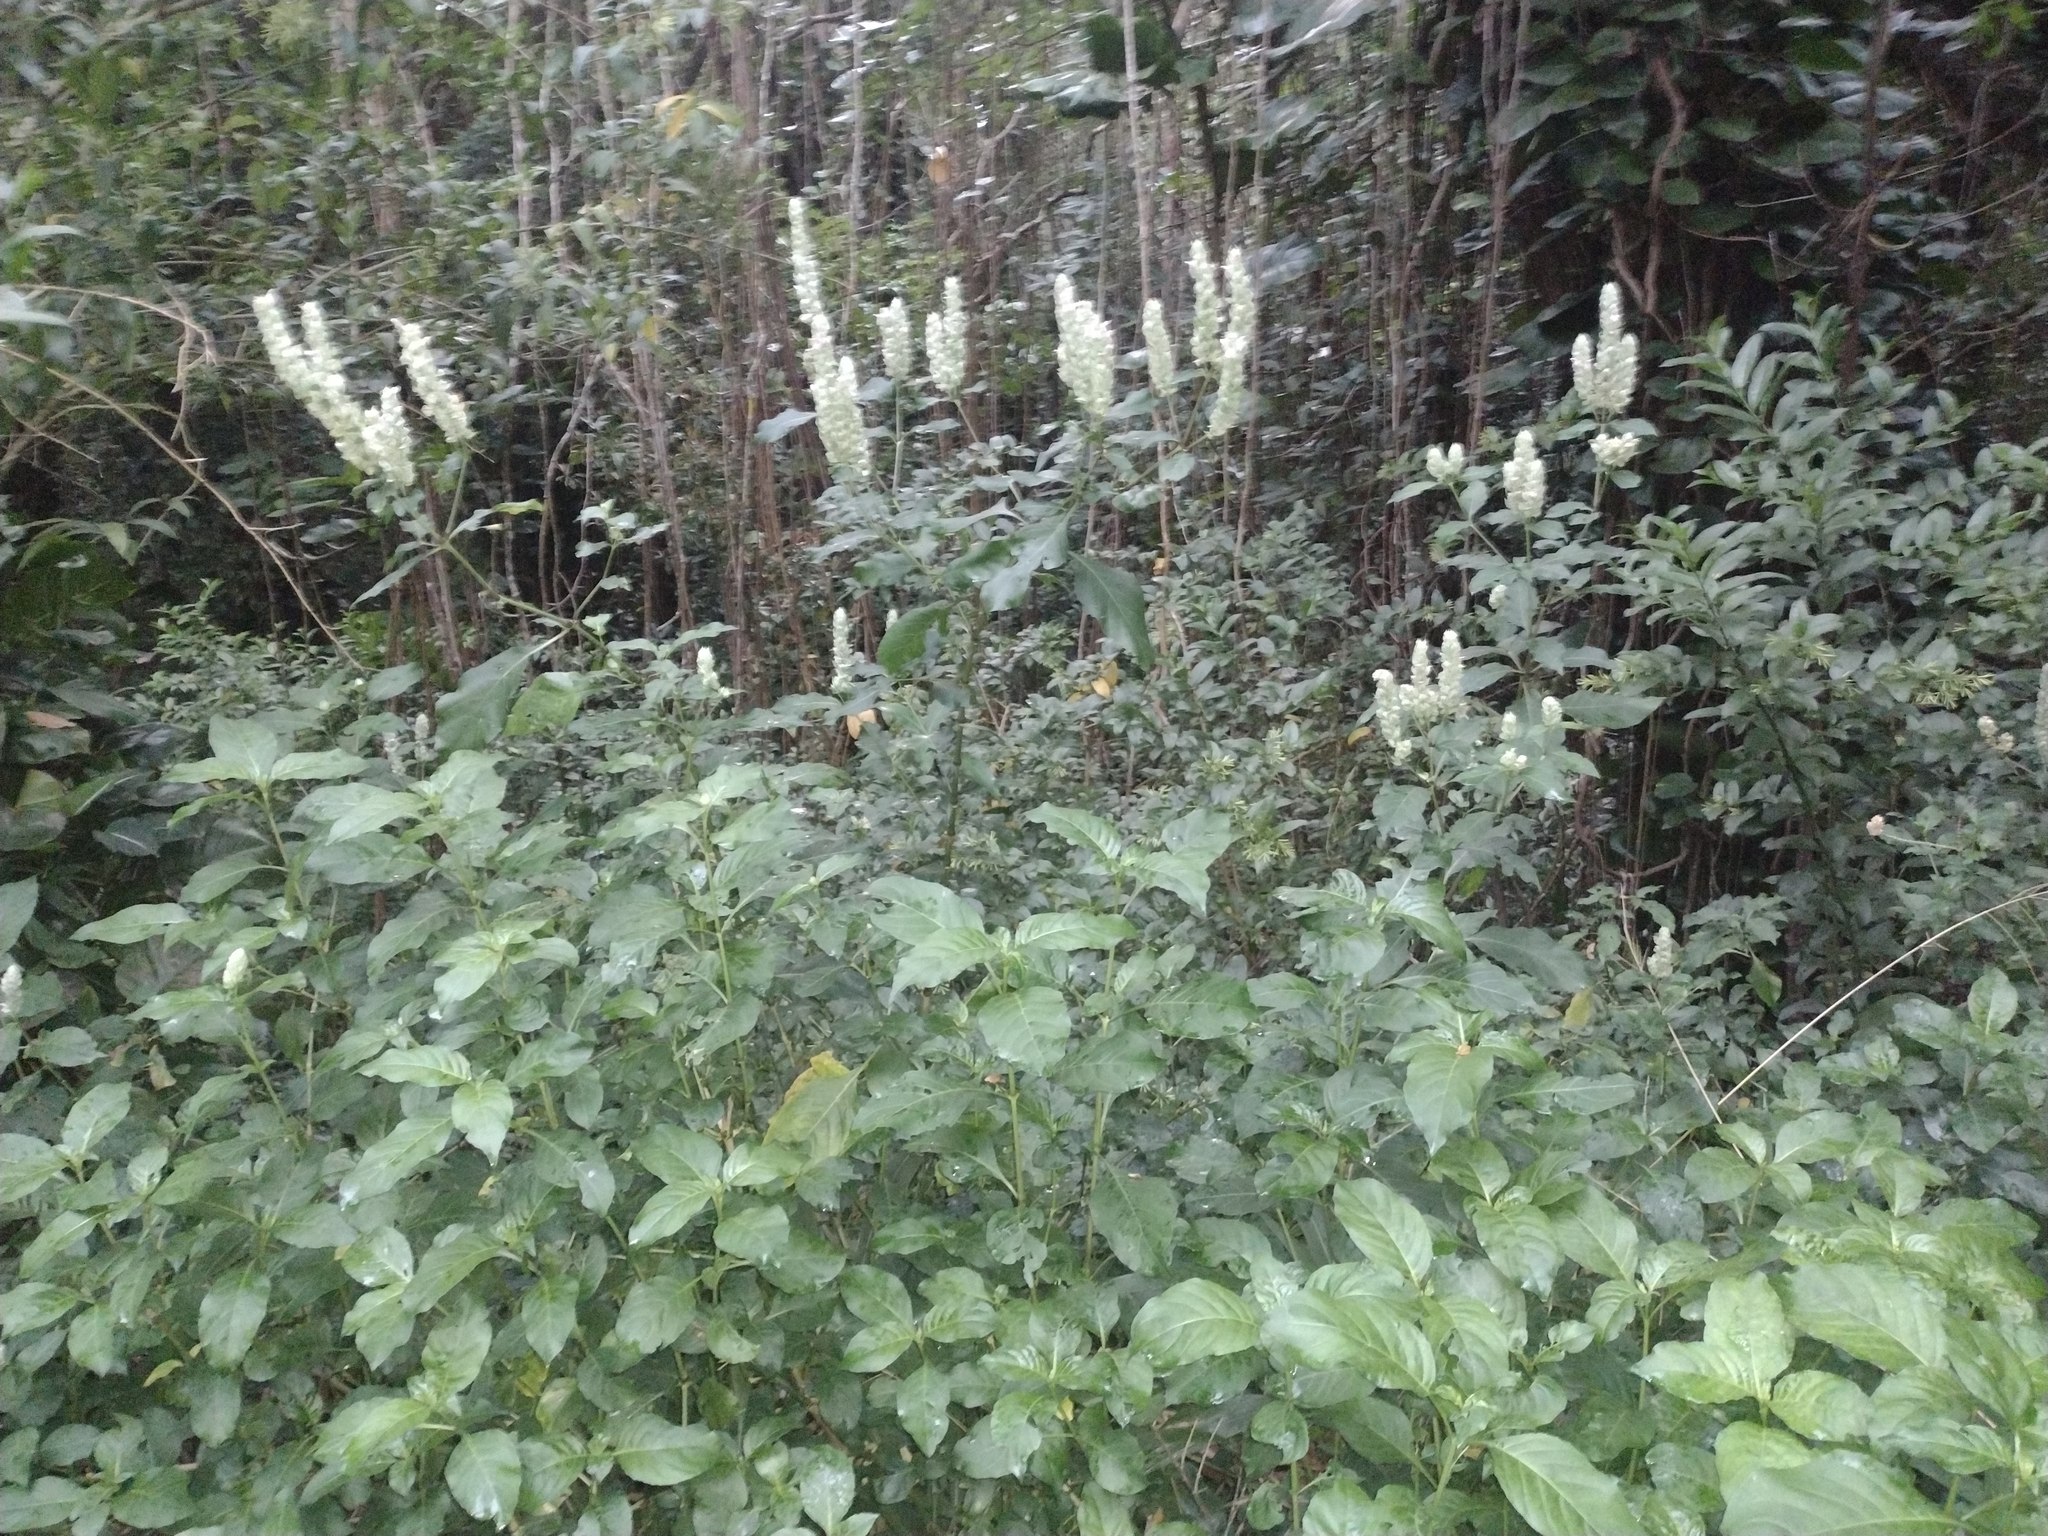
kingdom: Plantae
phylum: Tracheophyta
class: Magnoliopsida
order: Lamiales
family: Acanthaceae
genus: Justicia
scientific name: Justicia betonica
